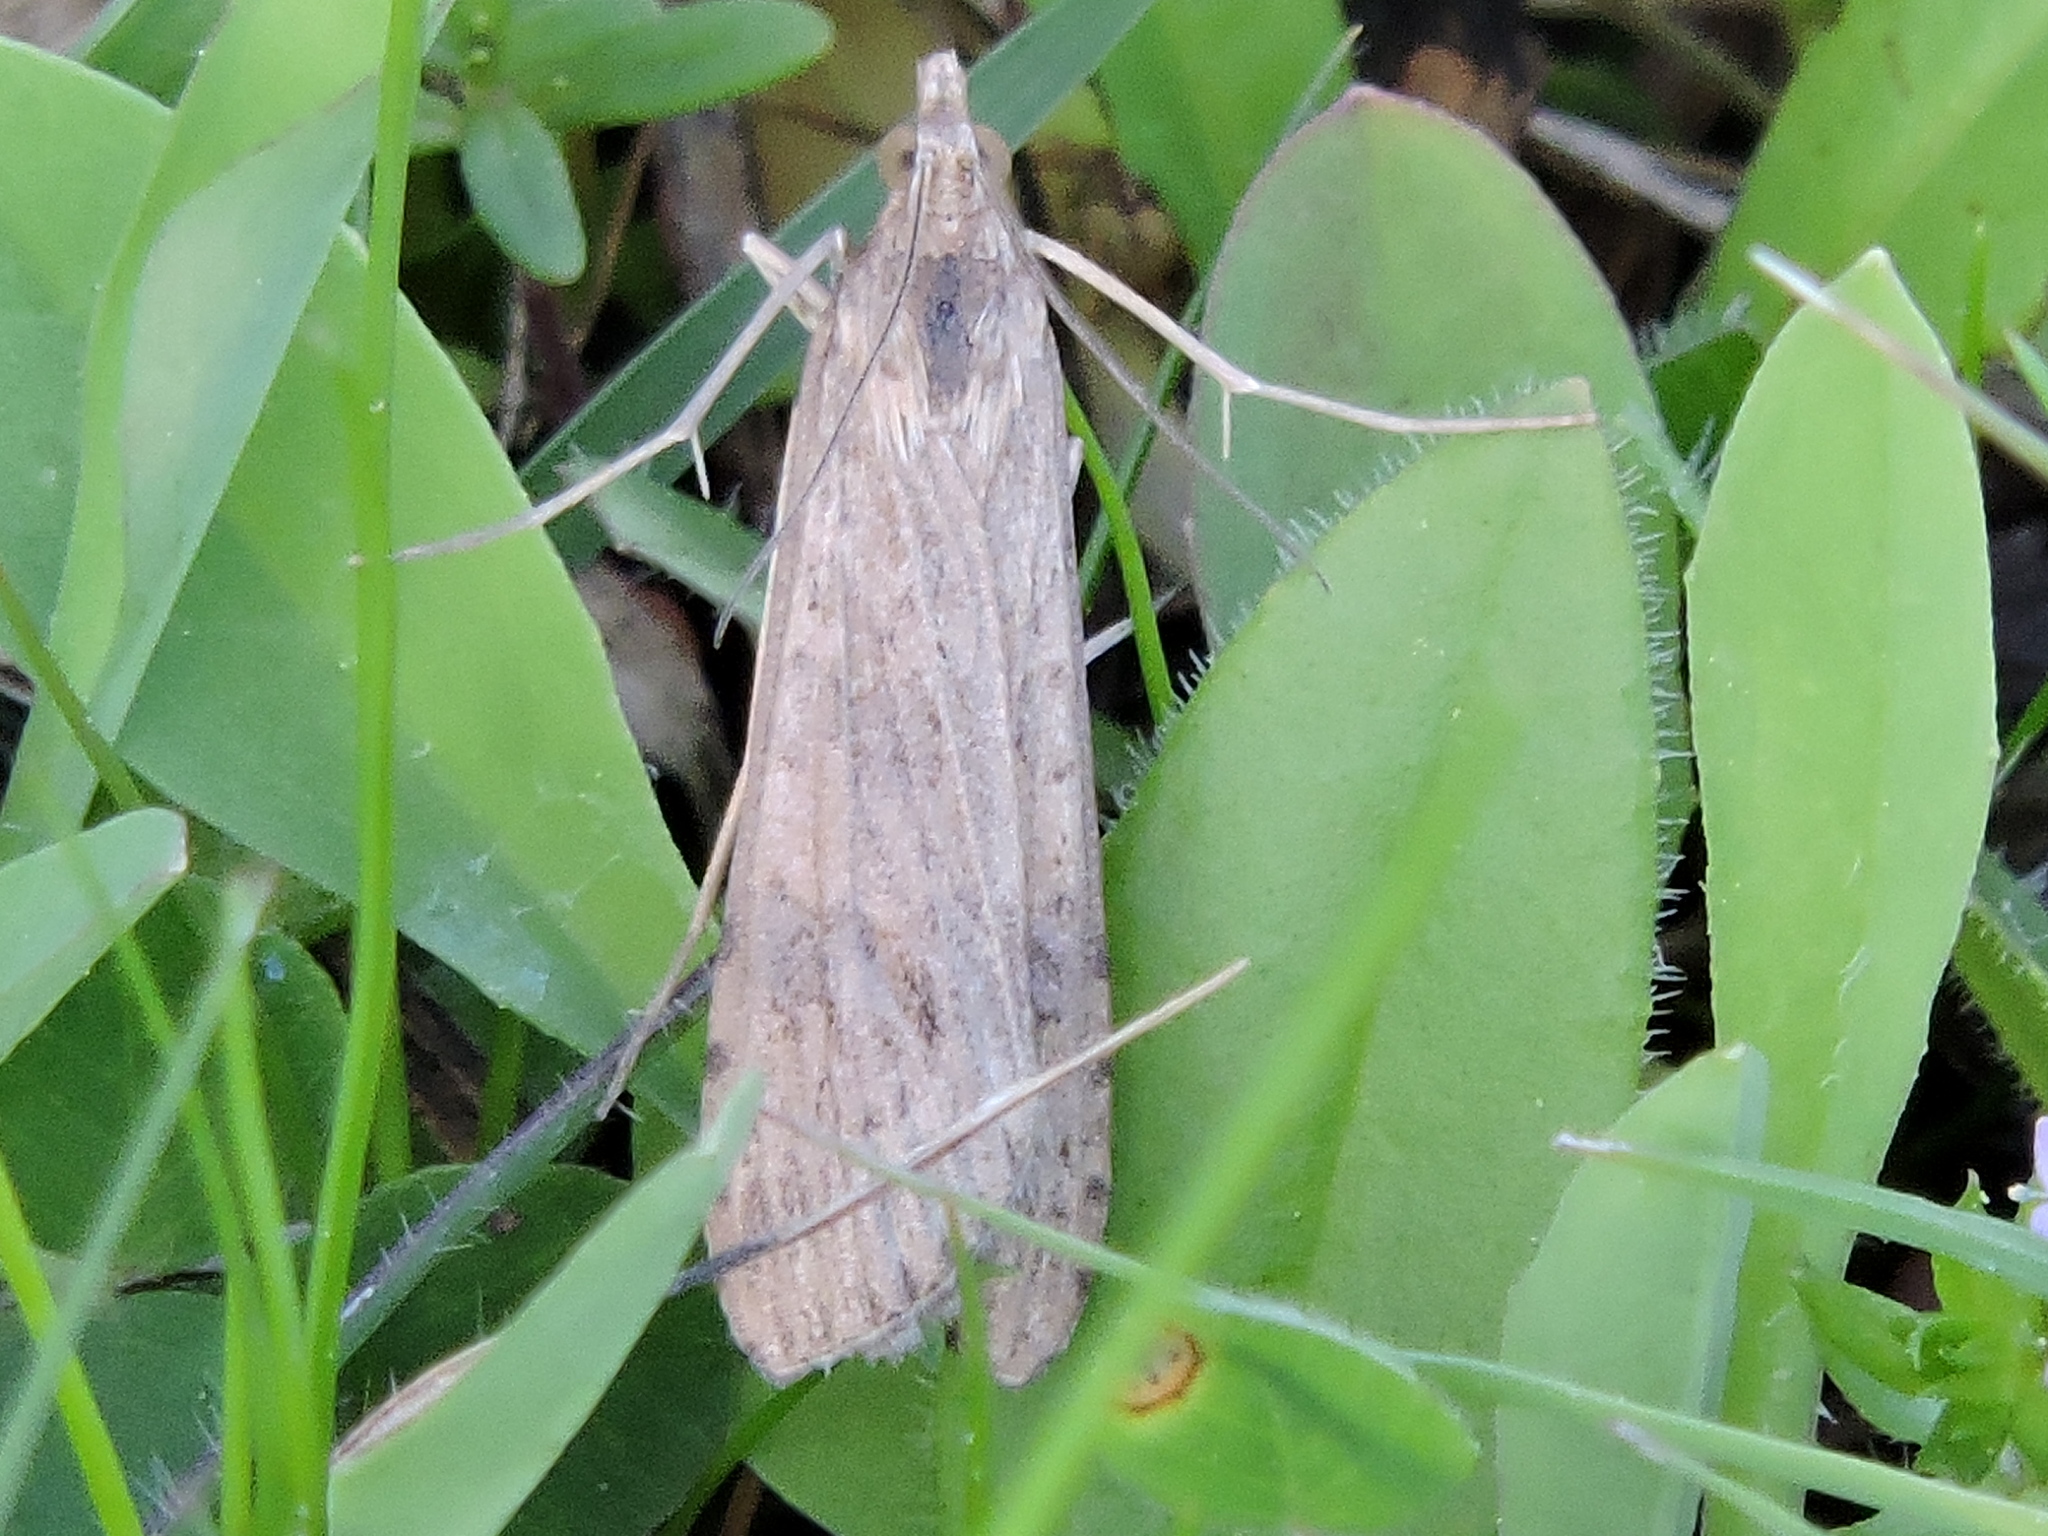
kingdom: Animalia
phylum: Arthropoda
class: Insecta
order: Lepidoptera
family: Crambidae
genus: Nomophila
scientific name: Nomophila nearctica
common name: American rush veneer
